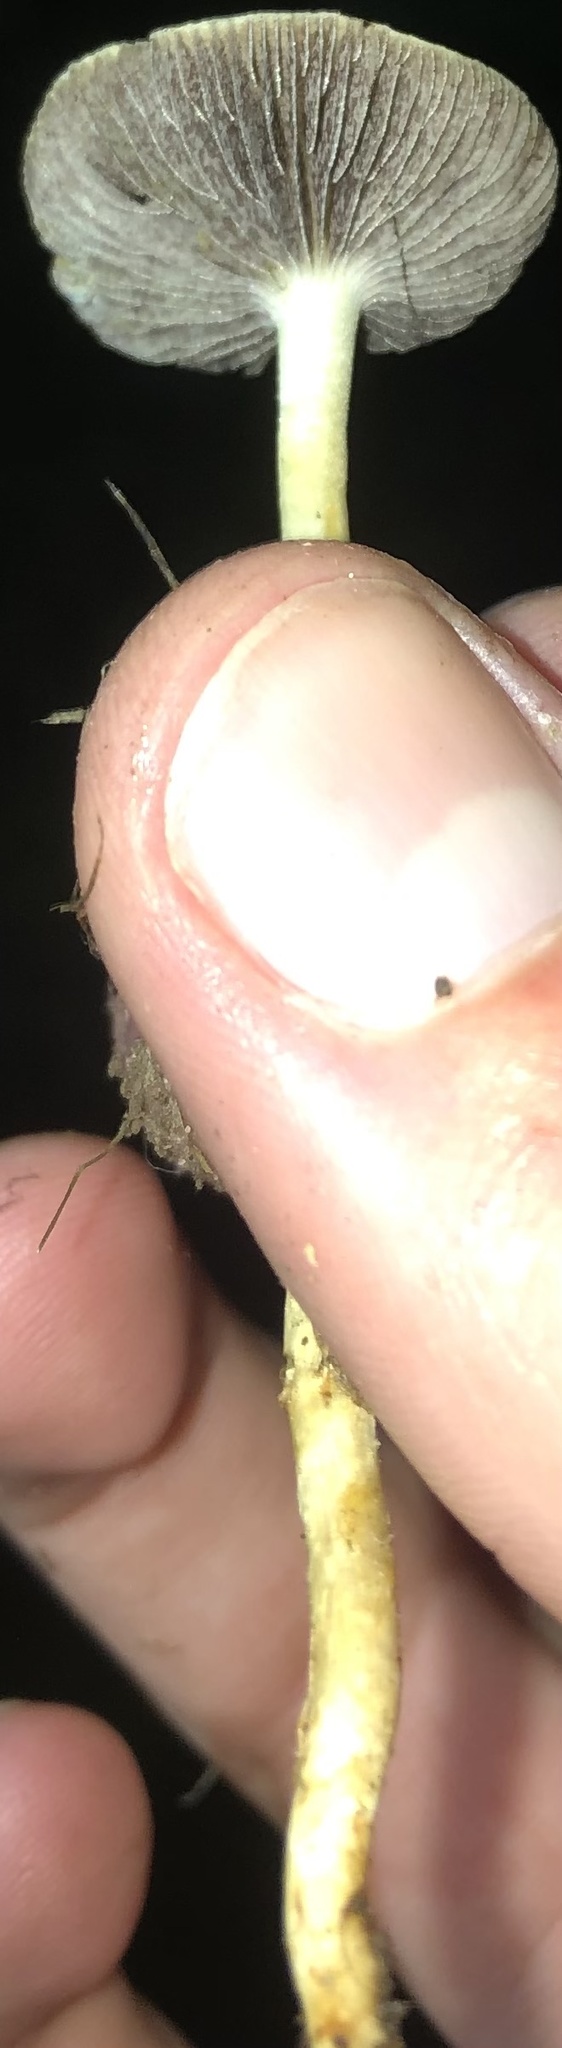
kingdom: Fungi
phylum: Basidiomycota
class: Agaricomycetes
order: Agaricales
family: Strophariaceae
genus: Leratiomyces
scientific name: Leratiomyces percevalii
